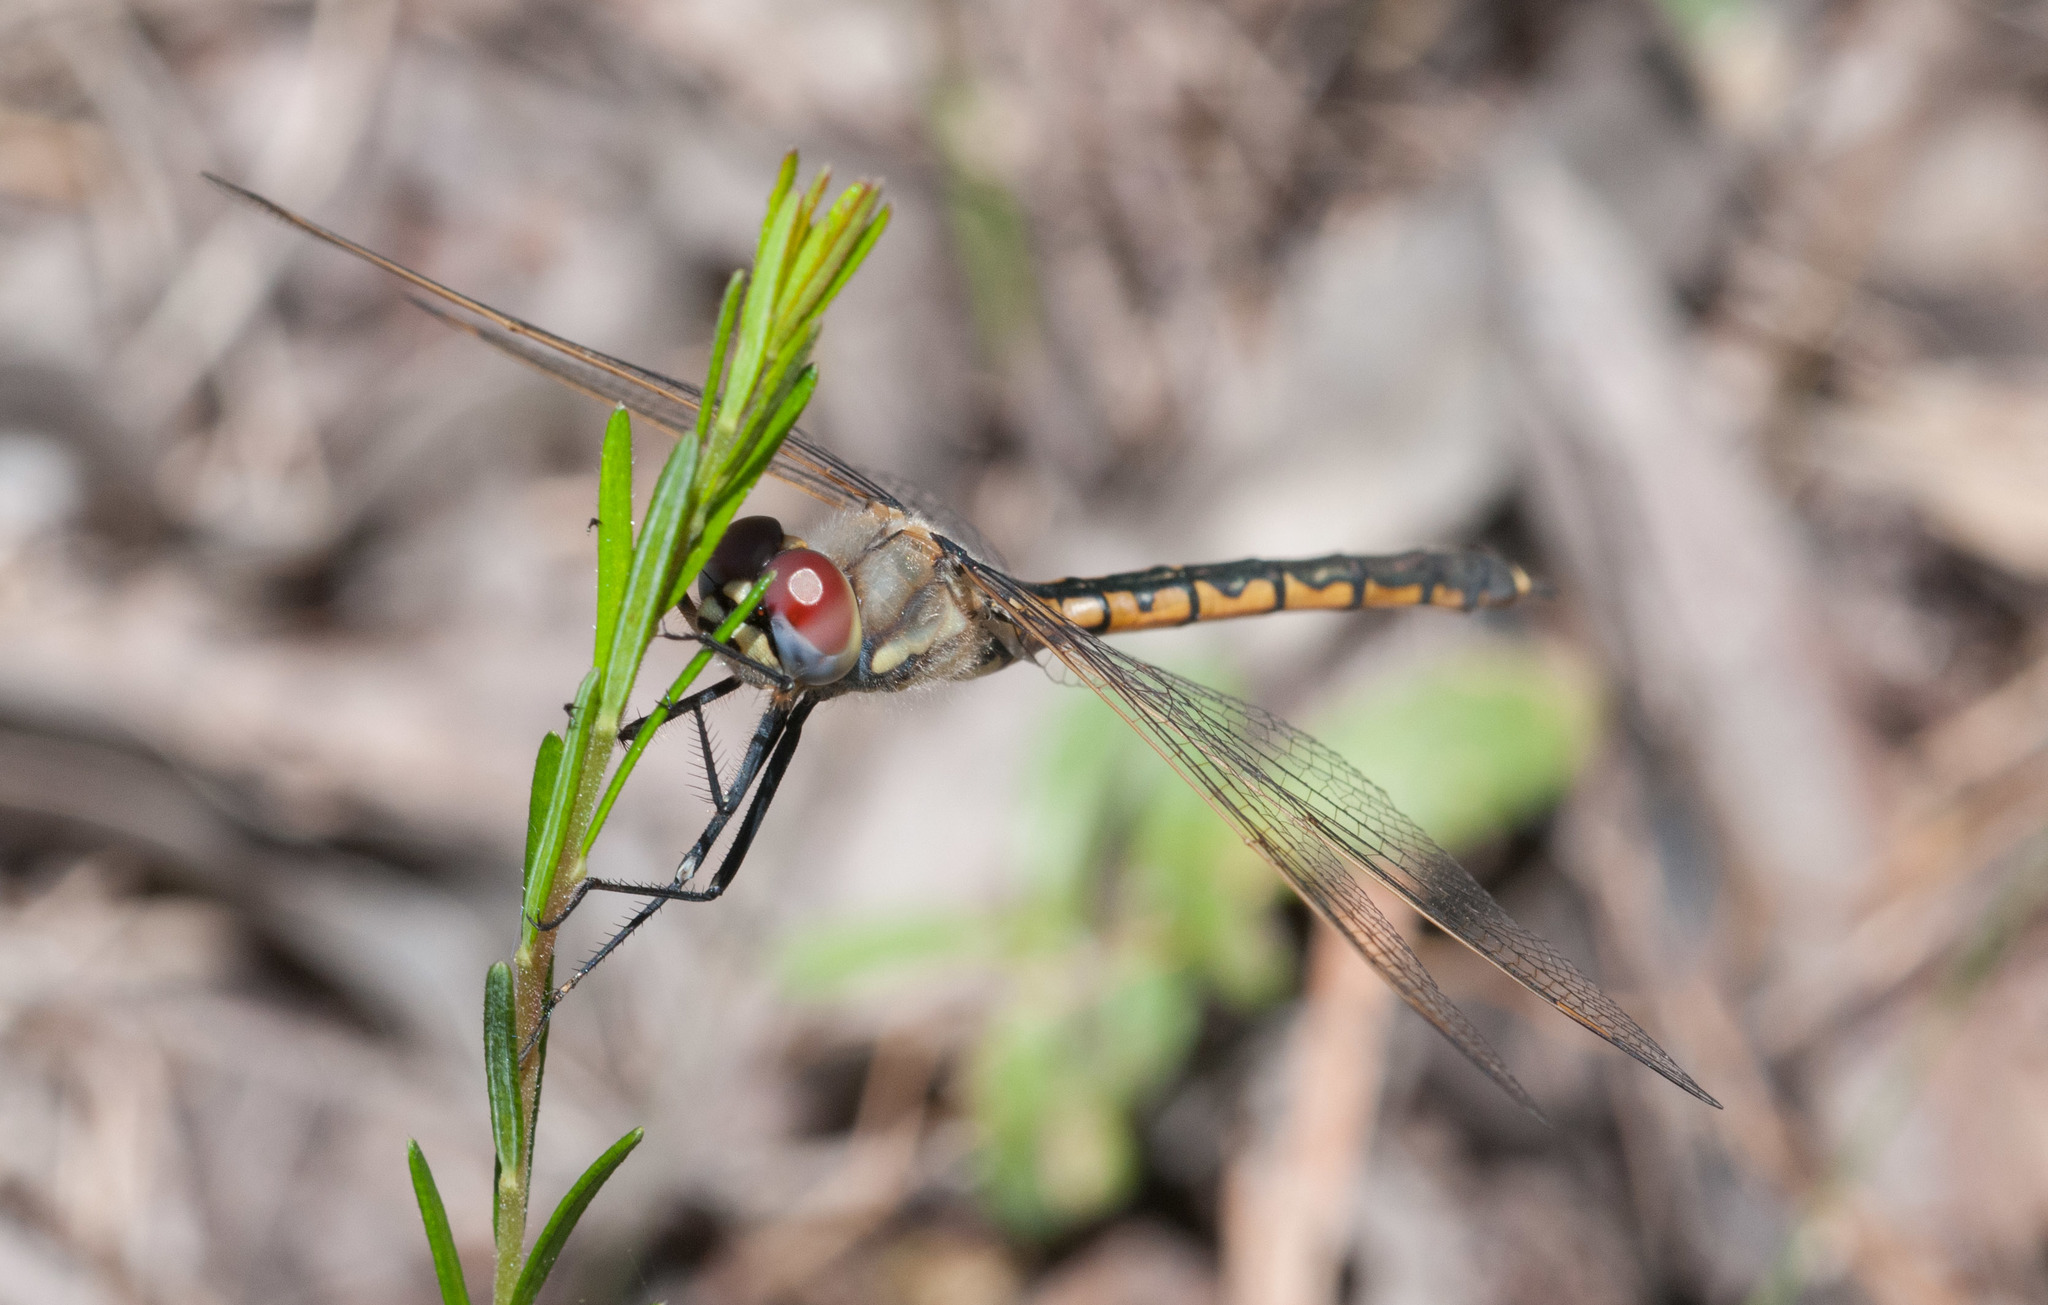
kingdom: Animalia
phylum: Arthropoda
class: Insecta
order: Odonata
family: Corduliidae
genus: Hemicordulia
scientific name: Hemicordulia tau
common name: Tau emerald
